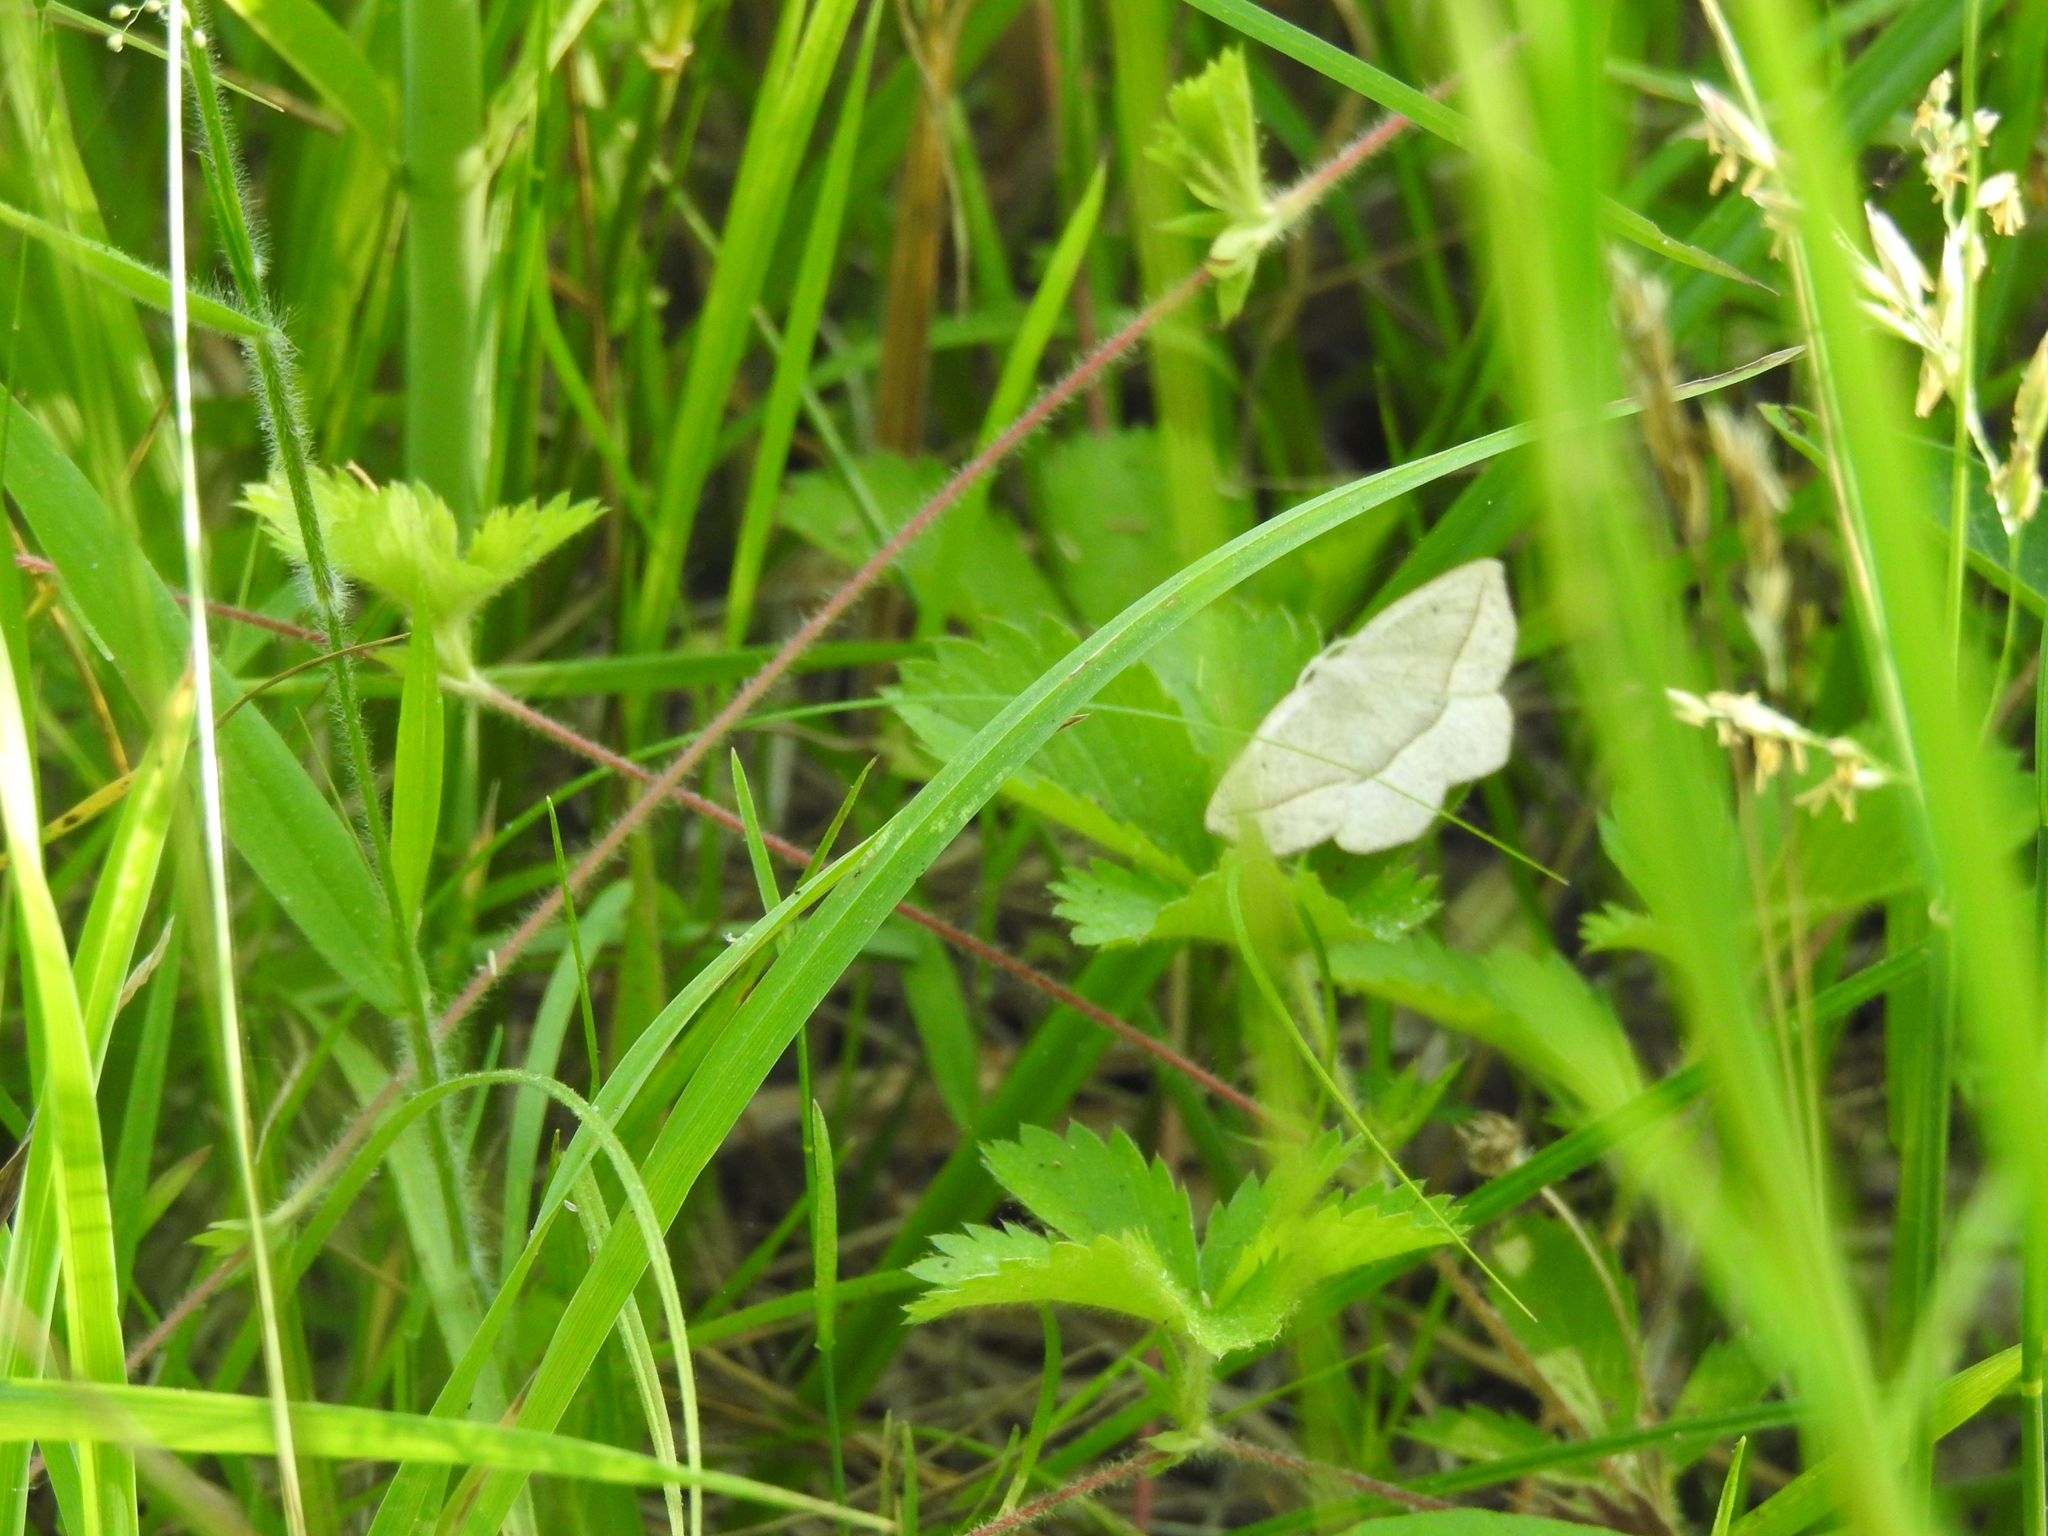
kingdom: Animalia
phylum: Arthropoda
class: Insecta
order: Lepidoptera
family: Geometridae
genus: Eusarca
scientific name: Eusarca confusaria
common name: Confused eusarca
